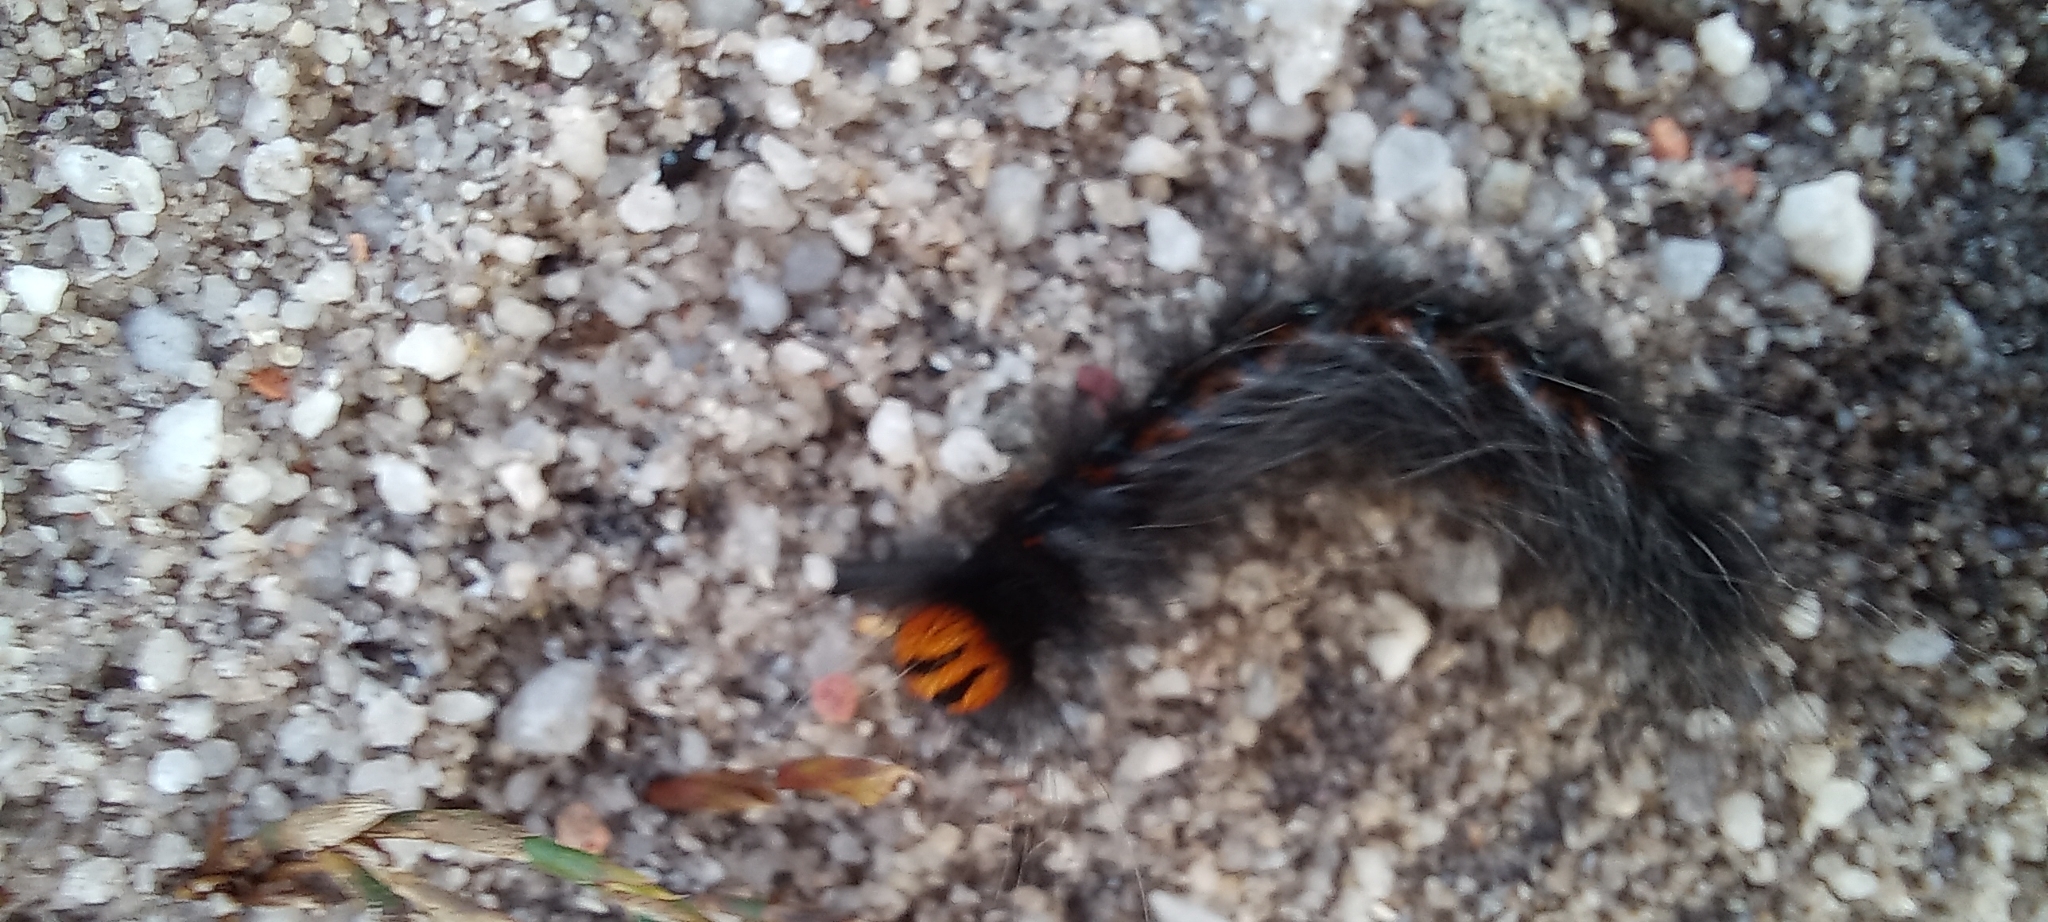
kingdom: Animalia
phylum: Arthropoda
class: Insecta
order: Lepidoptera
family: Lasiocampidae
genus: Mesocelis
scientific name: Mesocelis monticola
